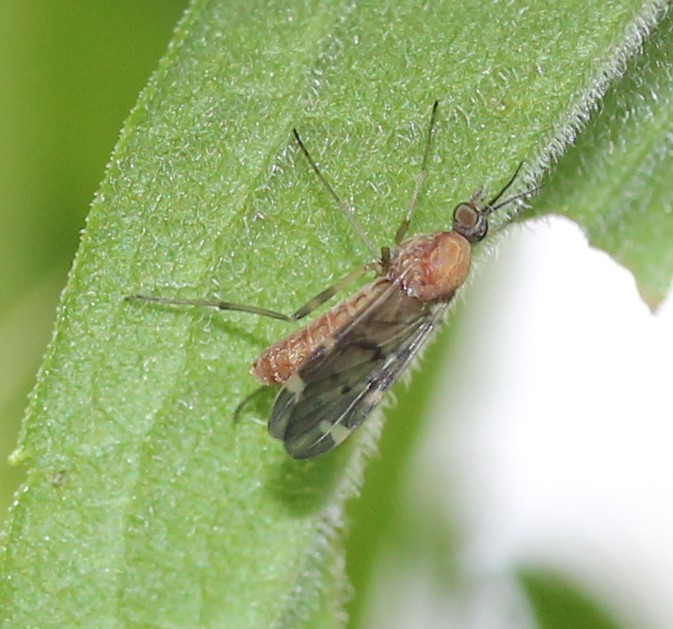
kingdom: Animalia
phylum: Arthropoda
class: Insecta
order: Diptera
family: Anisopodidae
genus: Sylvicola
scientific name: Sylvicola alternata
